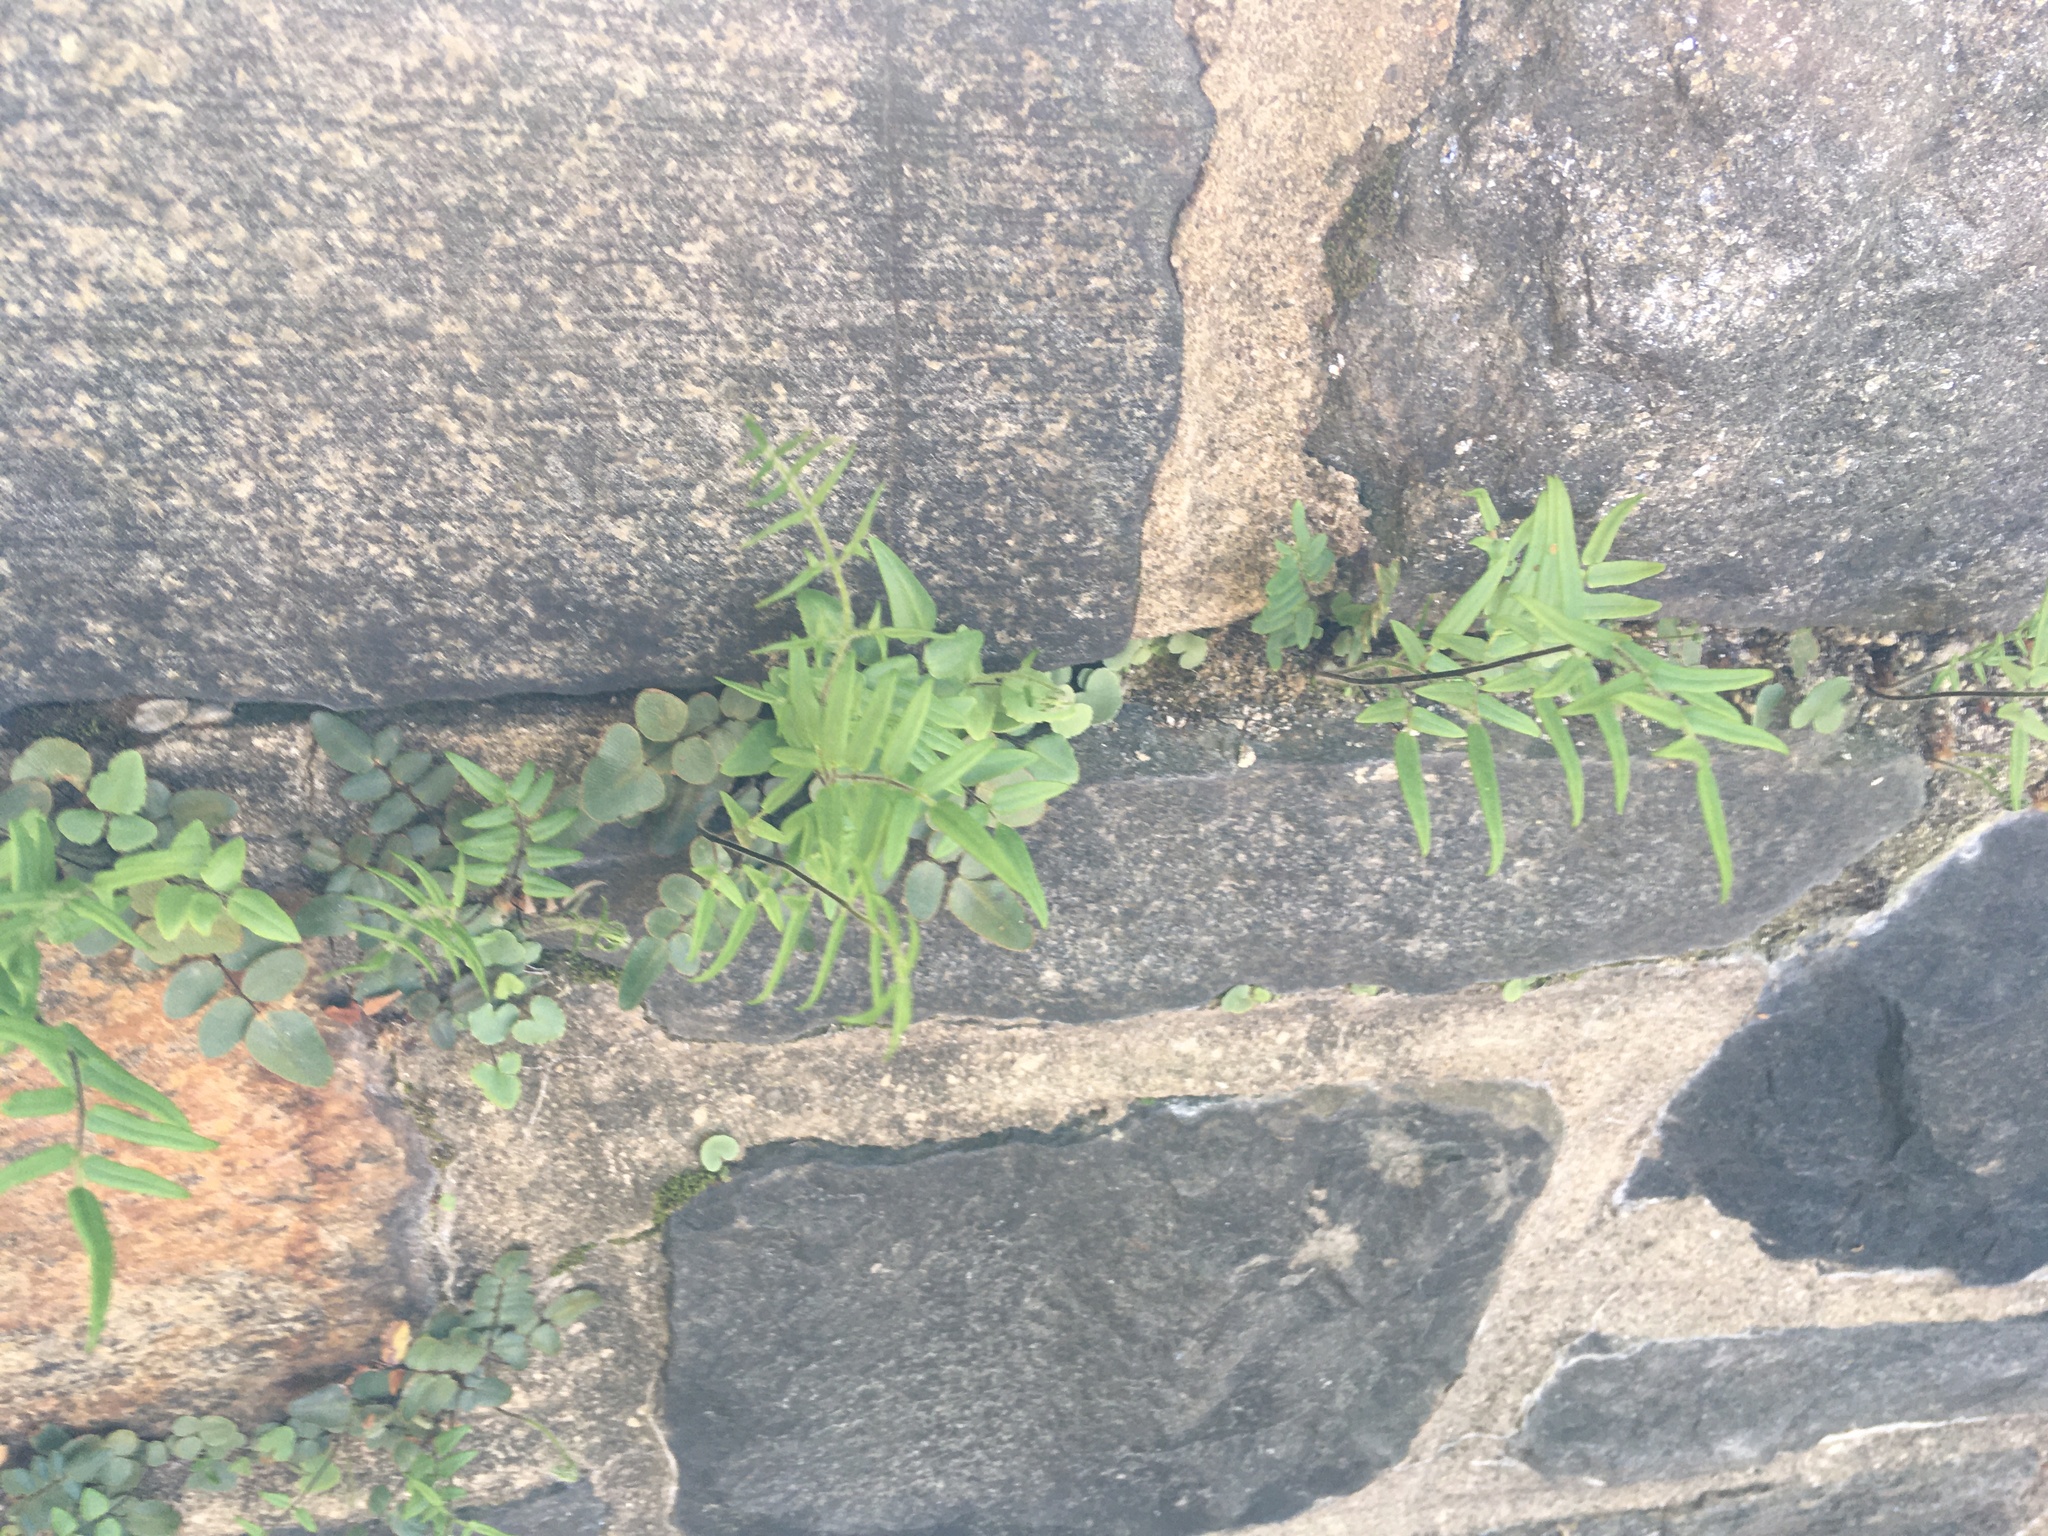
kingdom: Plantae
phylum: Tracheophyta
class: Polypodiopsida
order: Polypodiales
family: Pteridaceae
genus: Pellaea
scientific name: Pellaea atropurpurea
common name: Hairy cliffbrake
